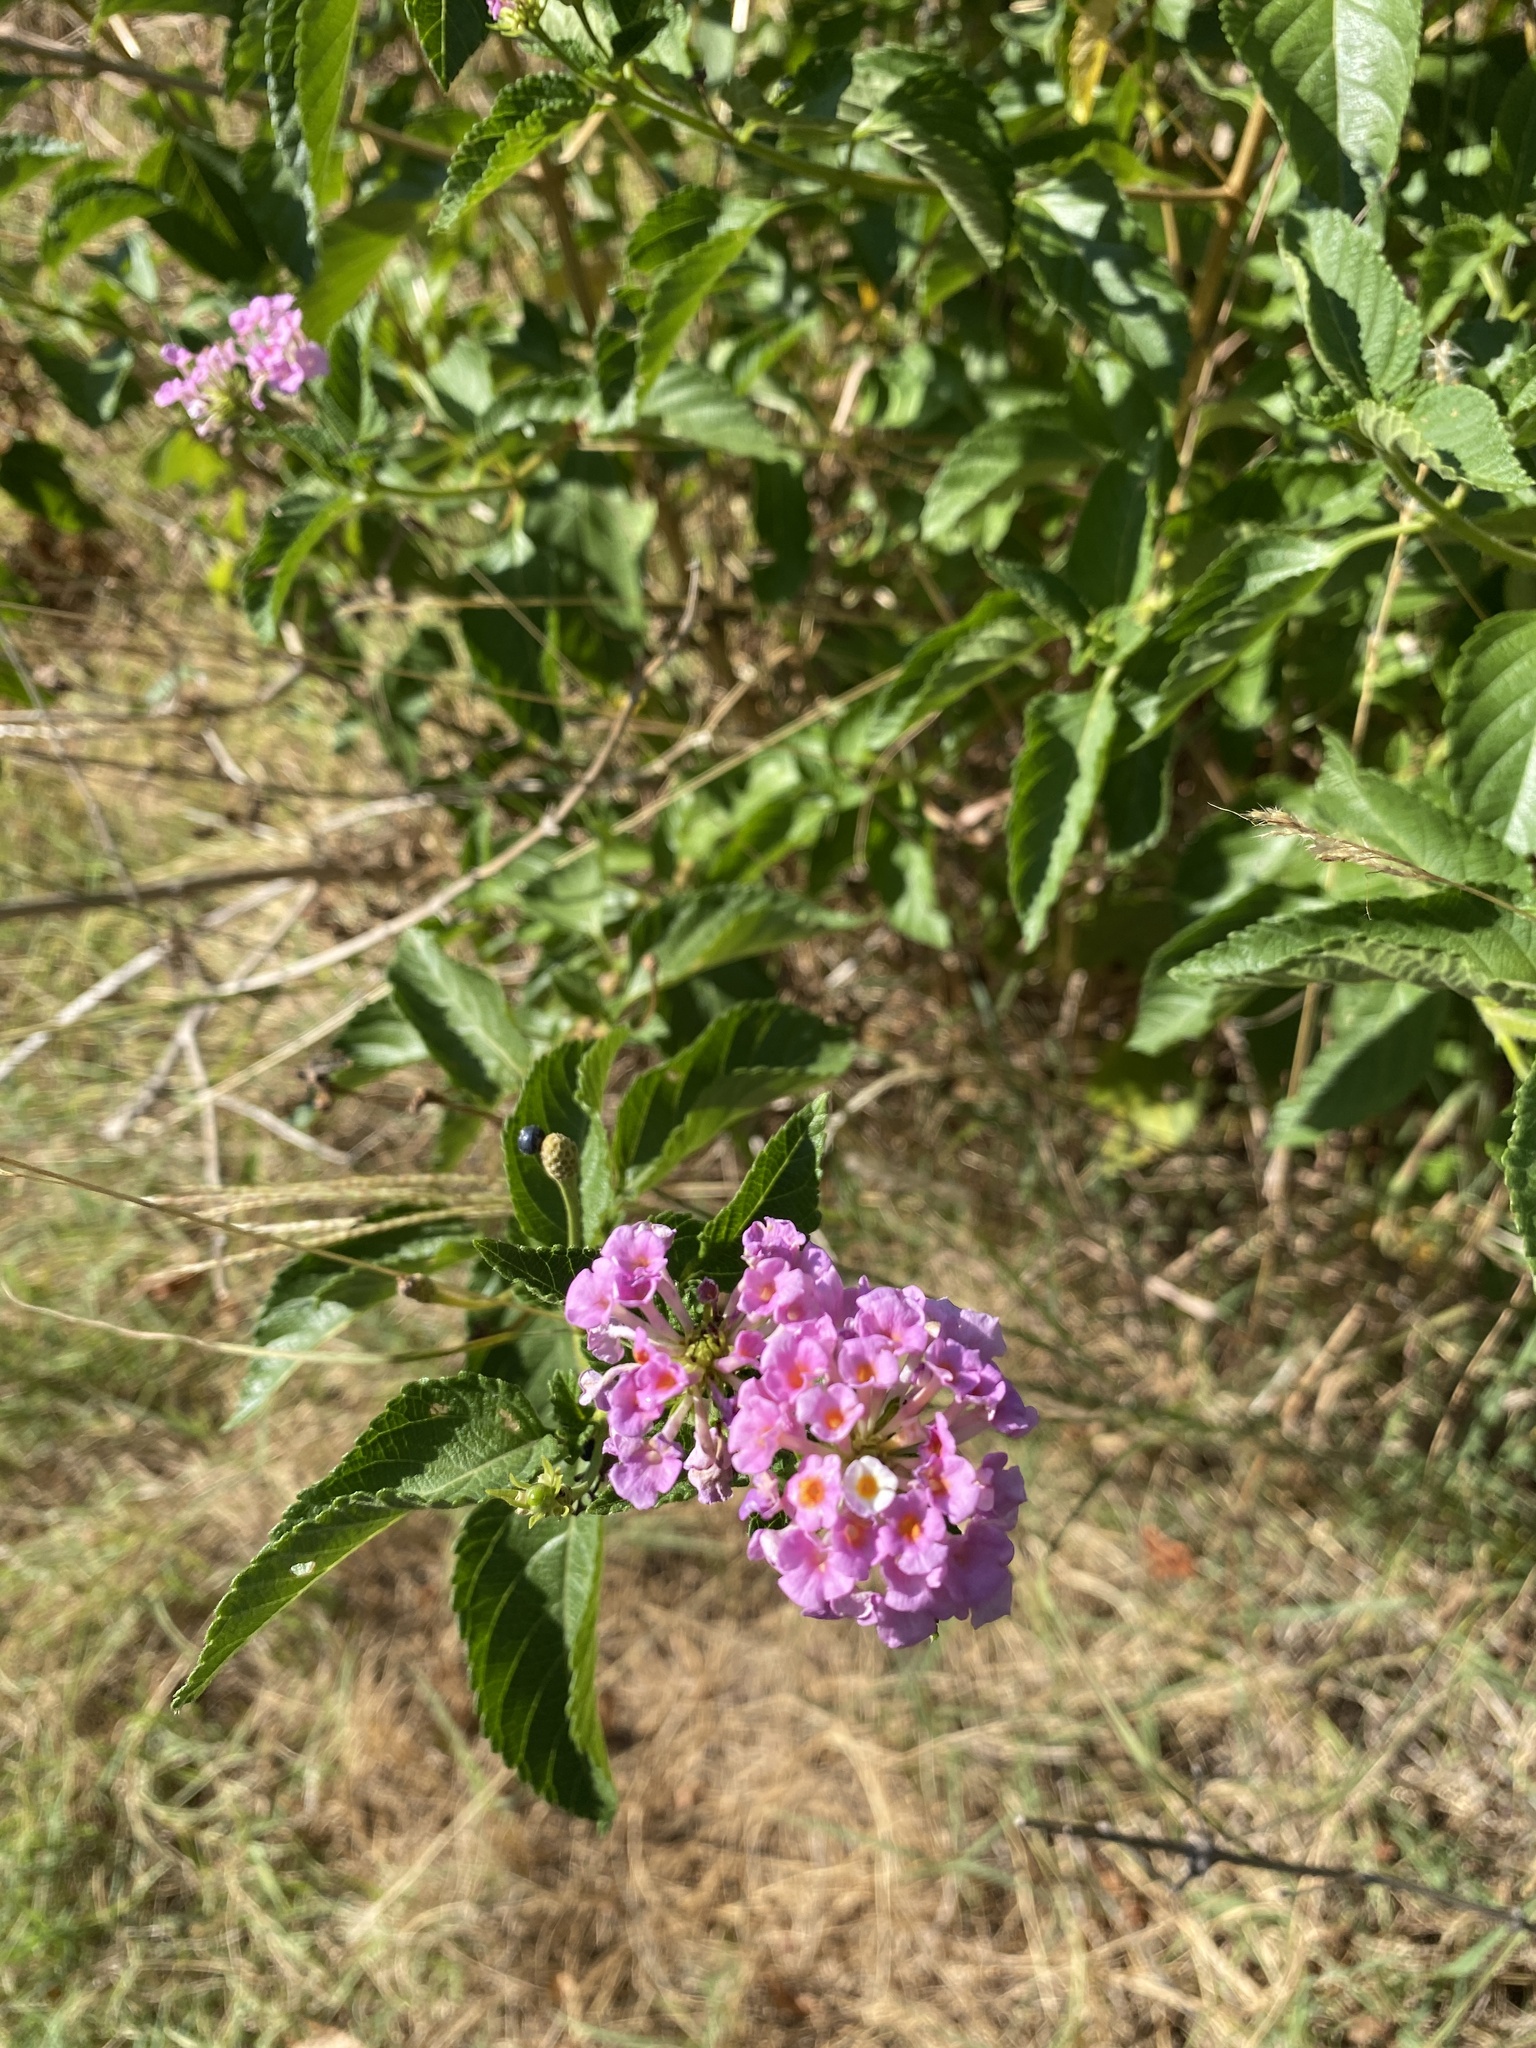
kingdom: Plantae
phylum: Tracheophyta
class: Magnoliopsida
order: Lamiales
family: Verbenaceae
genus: Lantana
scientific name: Lantana strigocamara
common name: Lantana
